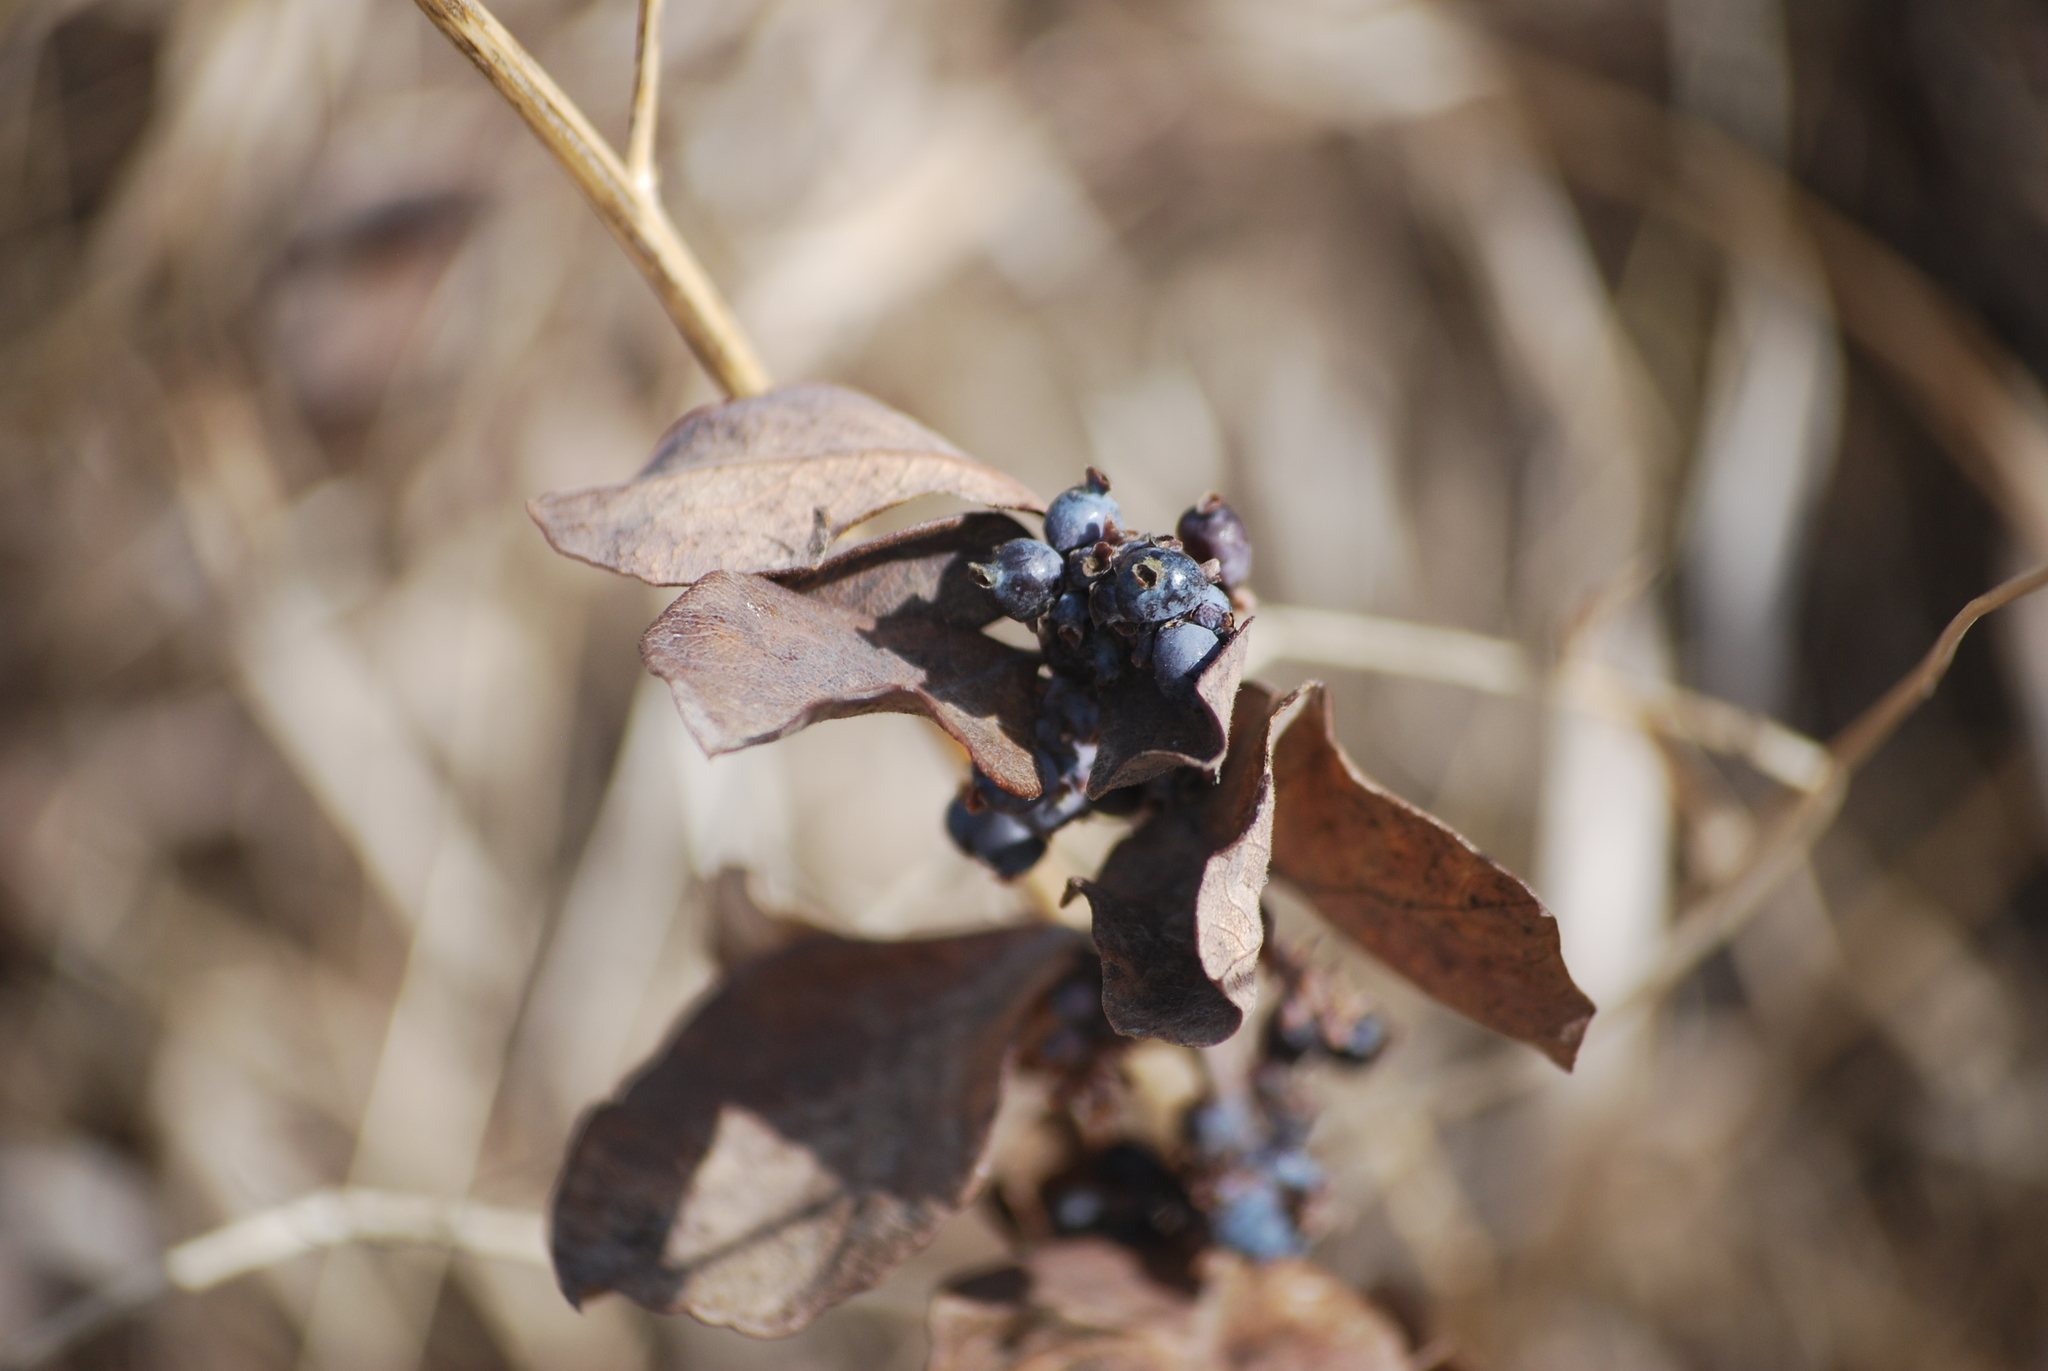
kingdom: Plantae
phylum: Tracheophyta
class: Magnoliopsida
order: Dipsacales
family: Caprifoliaceae
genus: Symphoricarpos
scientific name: Symphoricarpos occidentalis
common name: Wolfberry
